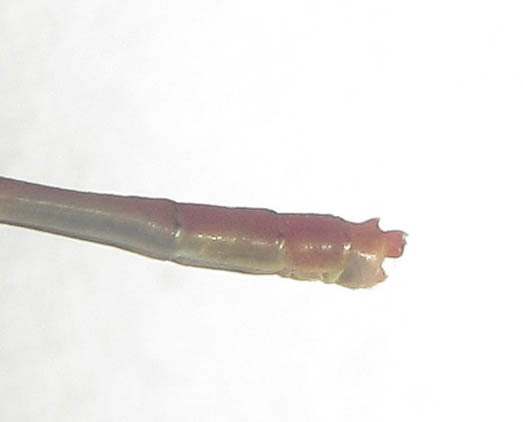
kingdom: Animalia
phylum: Arthropoda
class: Insecta
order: Odonata
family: Coenagrionidae
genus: Agriocnemis
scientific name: Agriocnemis ruberrima
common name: Orange wisp
